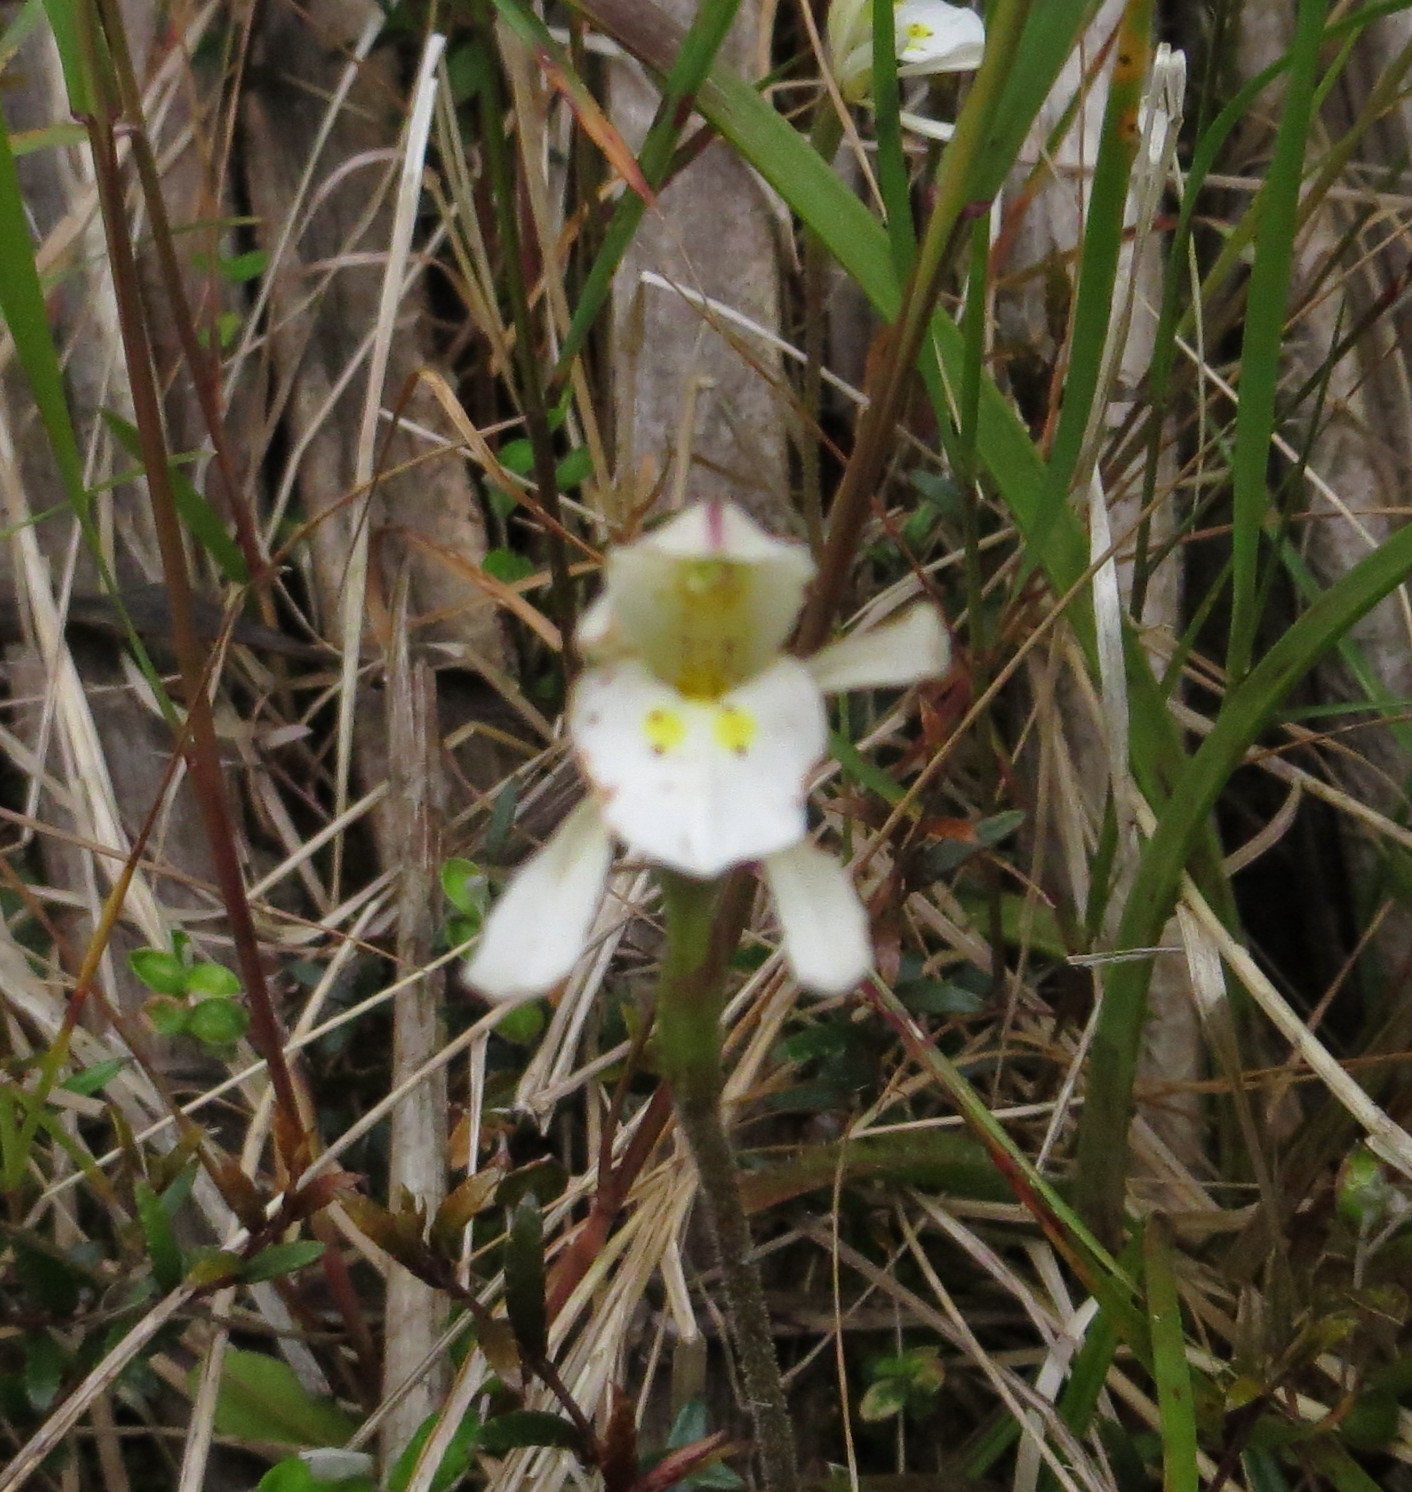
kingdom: Plantae
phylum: Tracheophyta
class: Liliopsida
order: Asparagales
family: Orchidaceae
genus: Aporostylis
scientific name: Aporostylis bifolia
